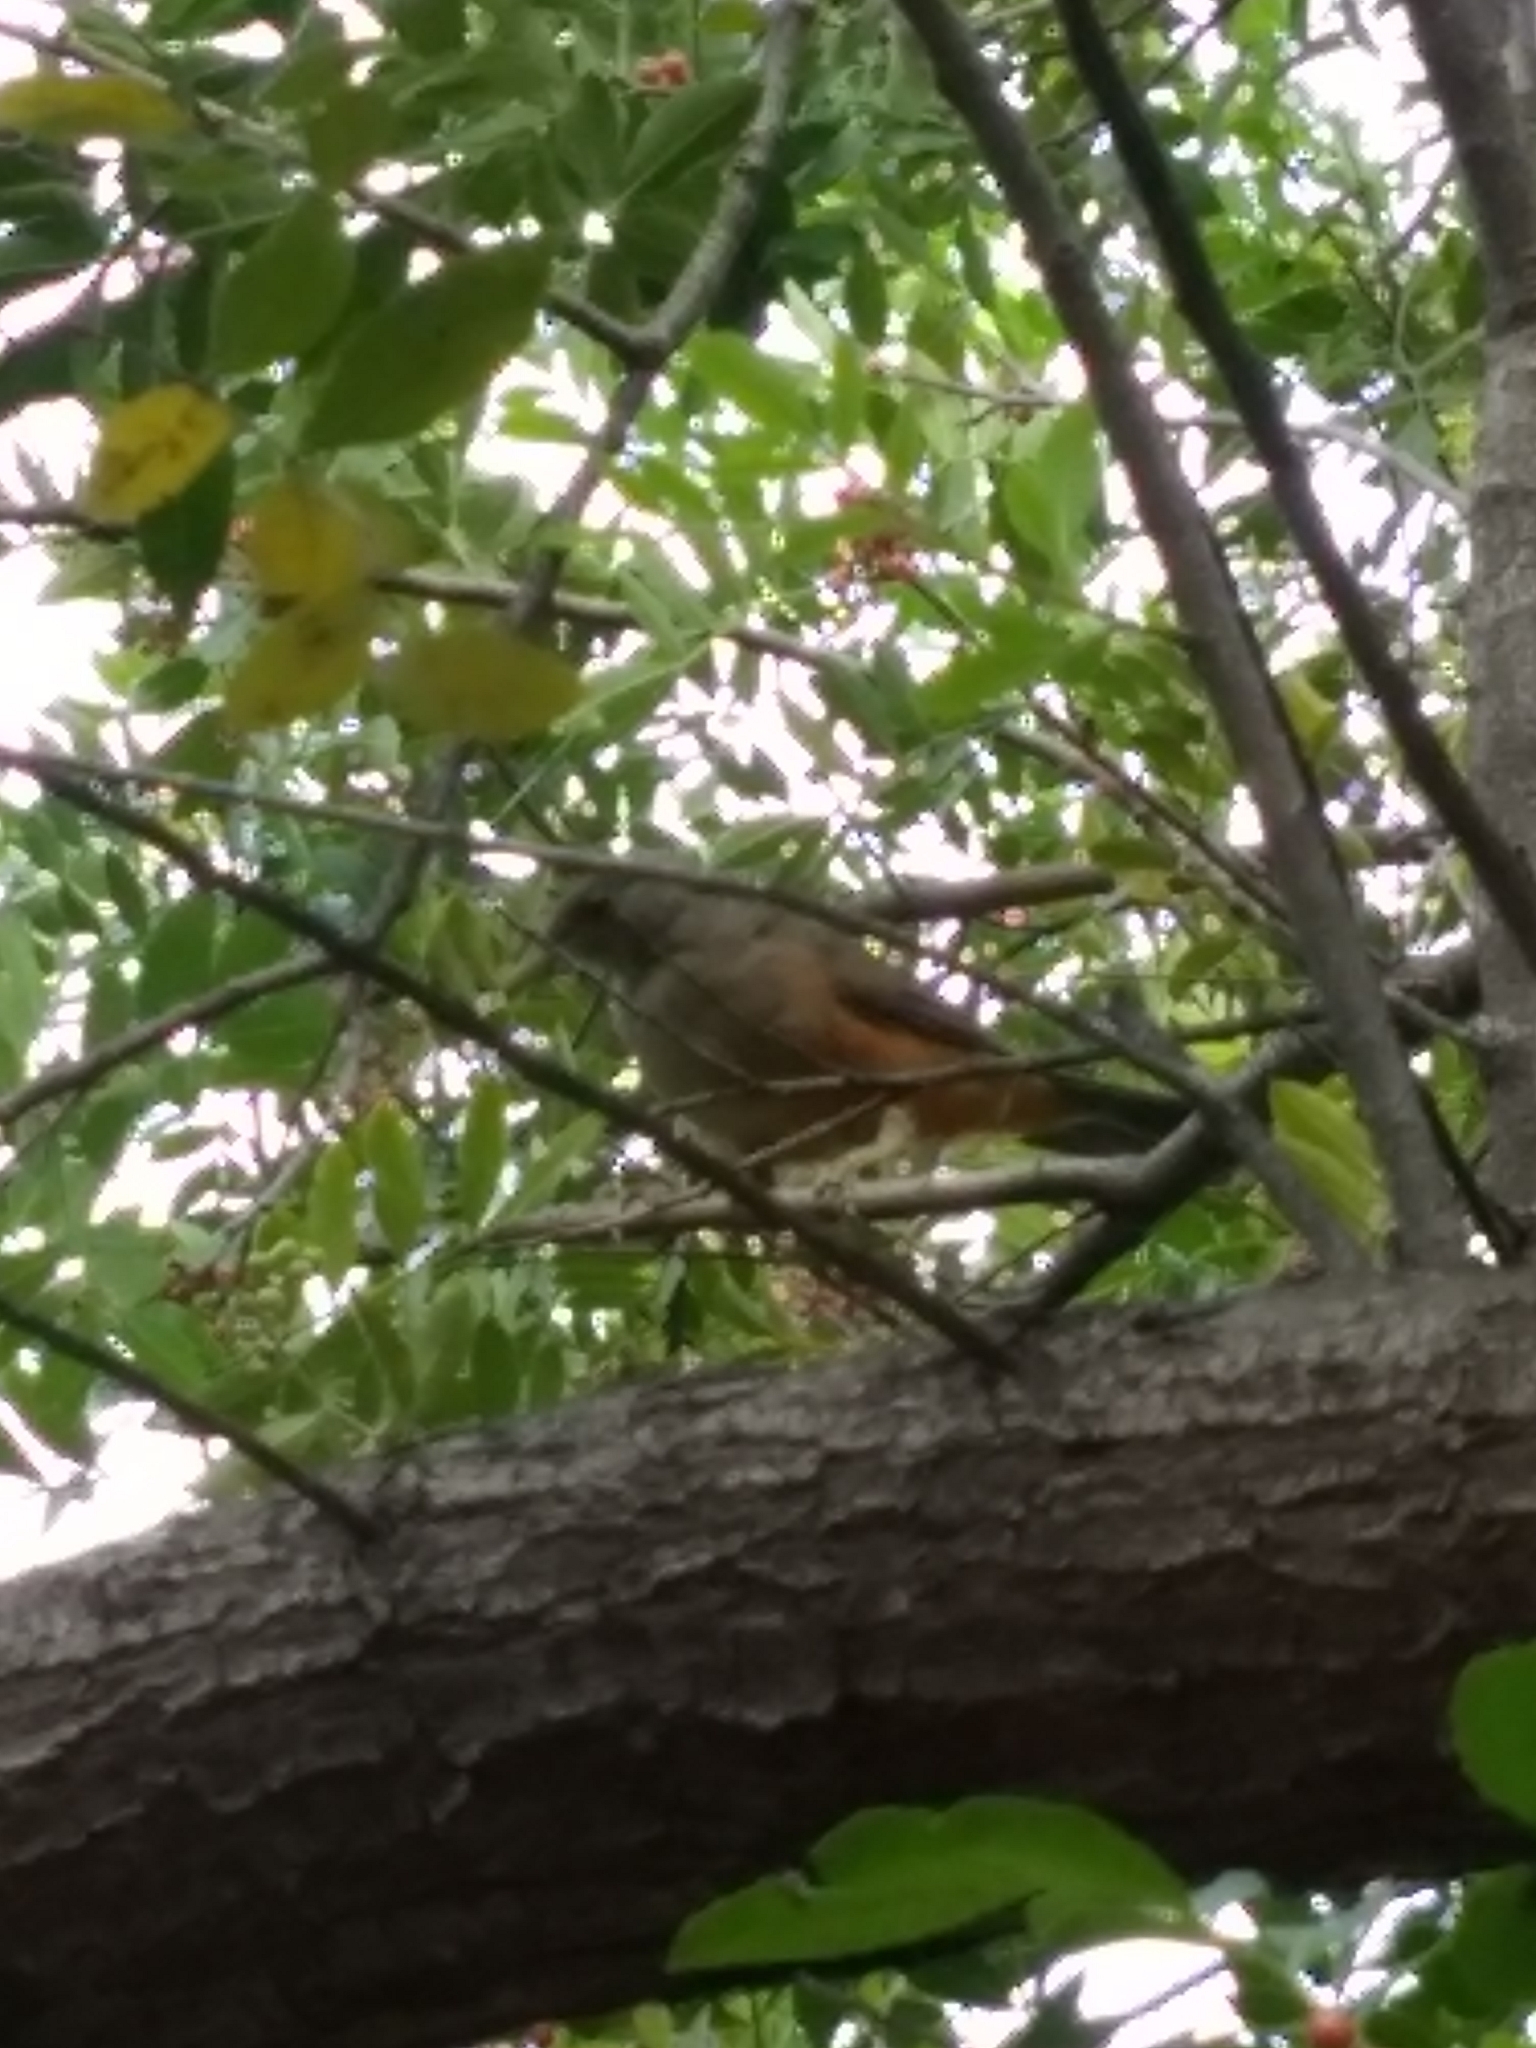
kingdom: Animalia
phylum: Chordata
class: Aves
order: Passeriformes
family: Turdidae
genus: Turdus
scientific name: Turdus rufiventris
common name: Rufous-bellied thrush
